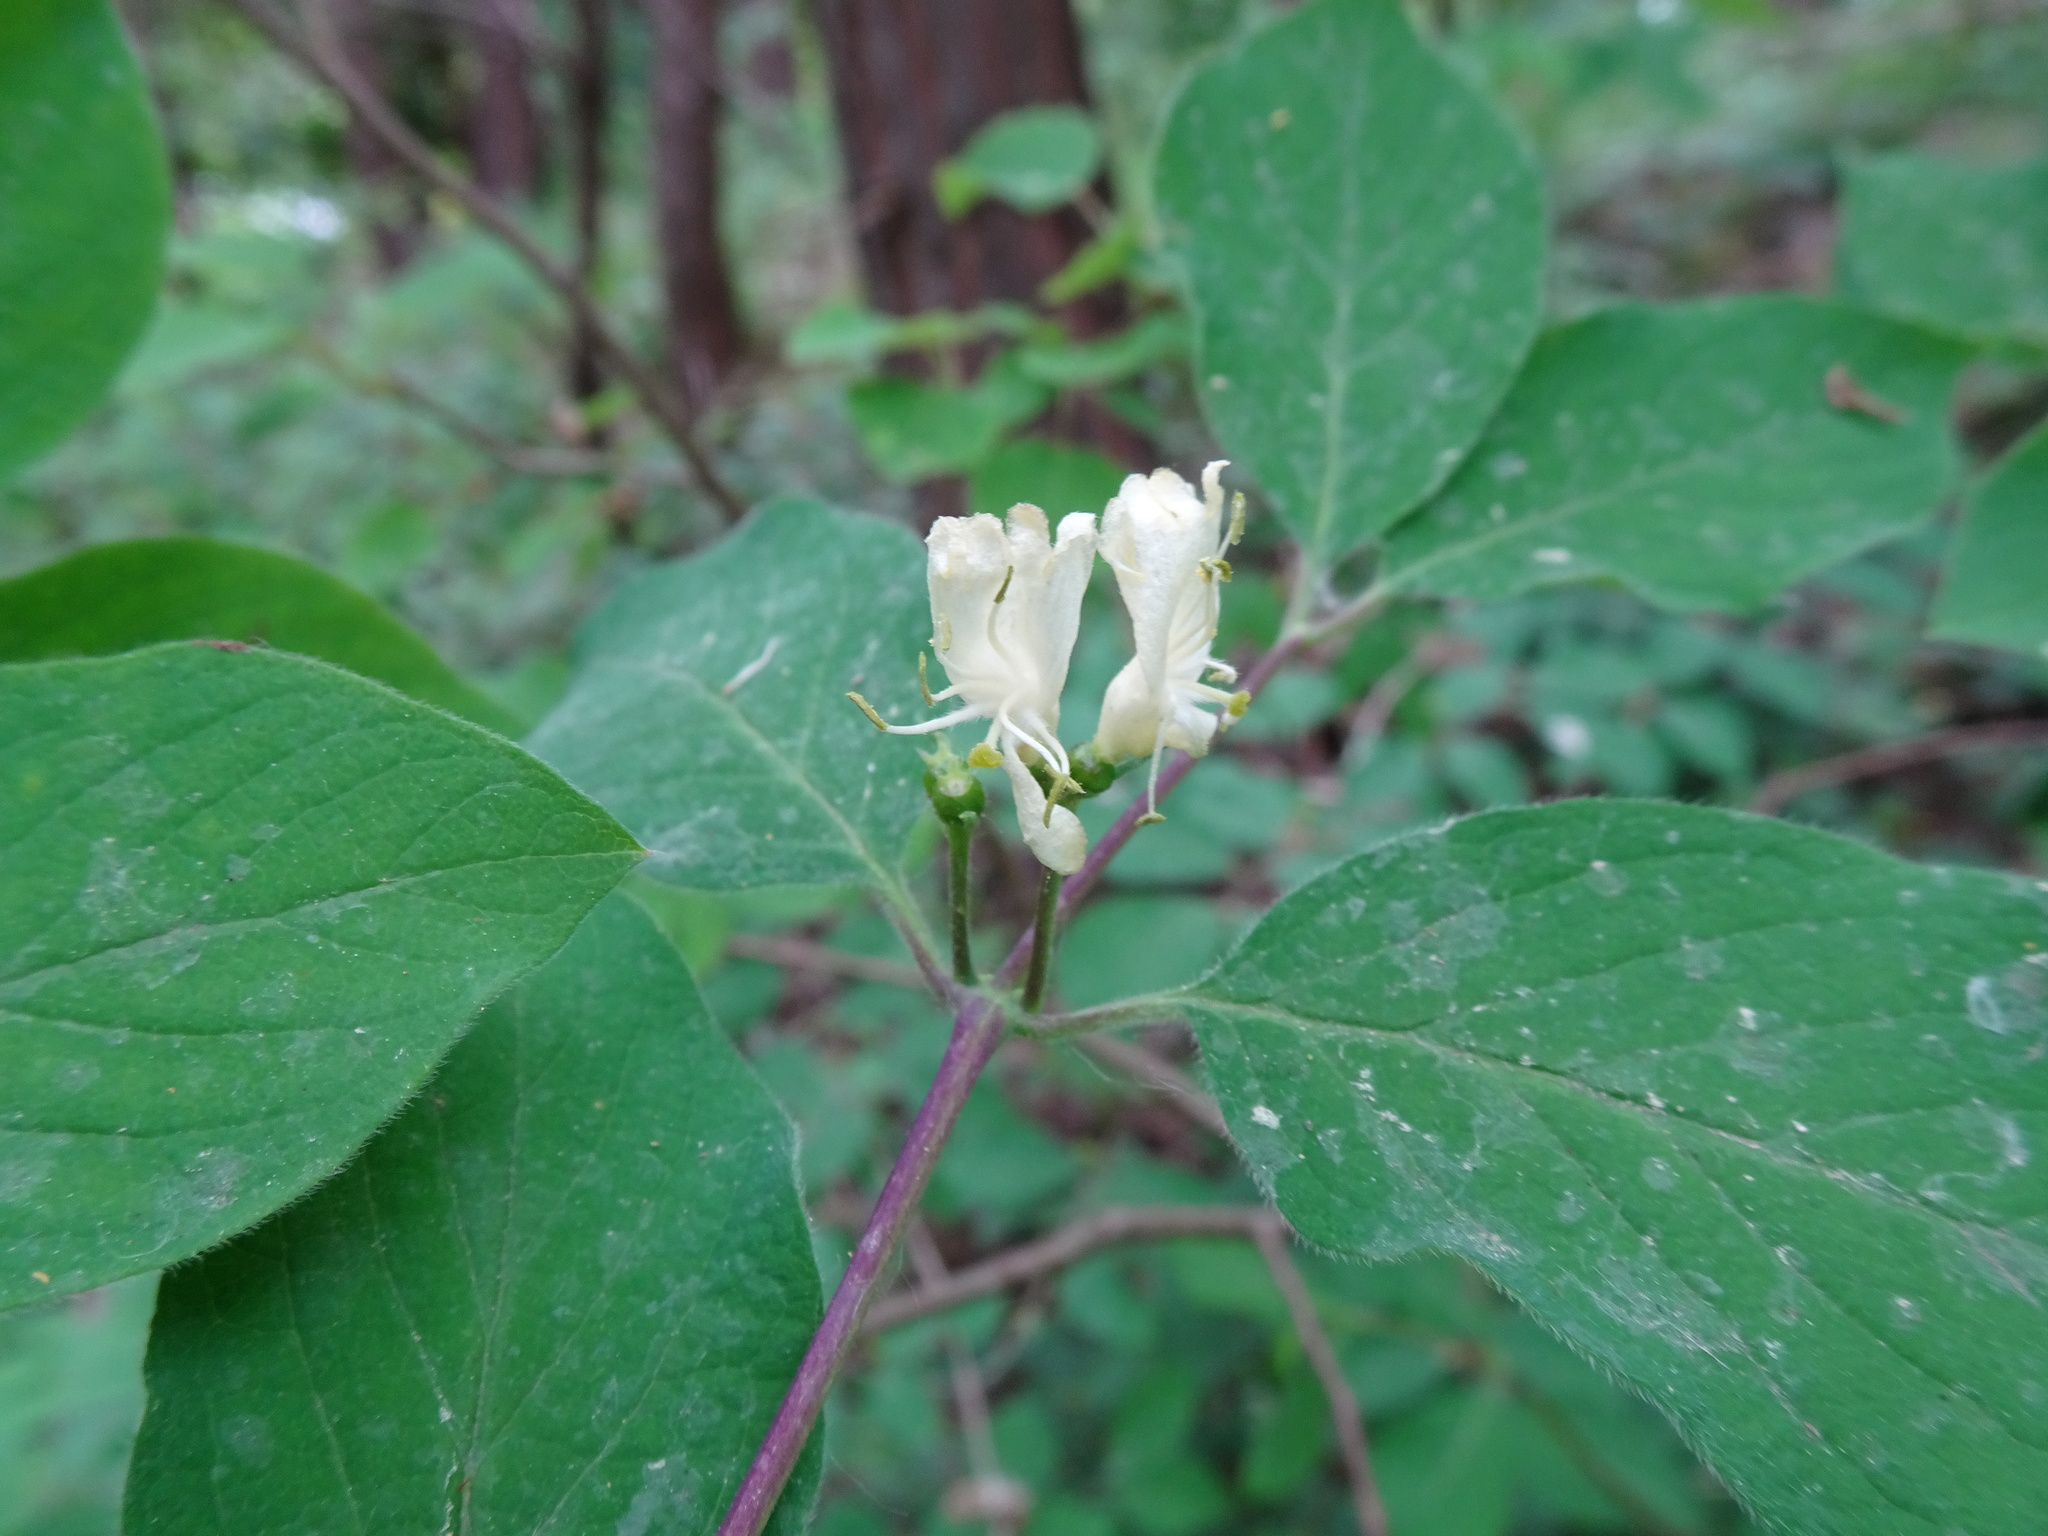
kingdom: Plantae
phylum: Tracheophyta
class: Magnoliopsida
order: Dipsacales
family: Caprifoliaceae
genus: Lonicera
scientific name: Lonicera xylosteum
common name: Fly honeysuckle
